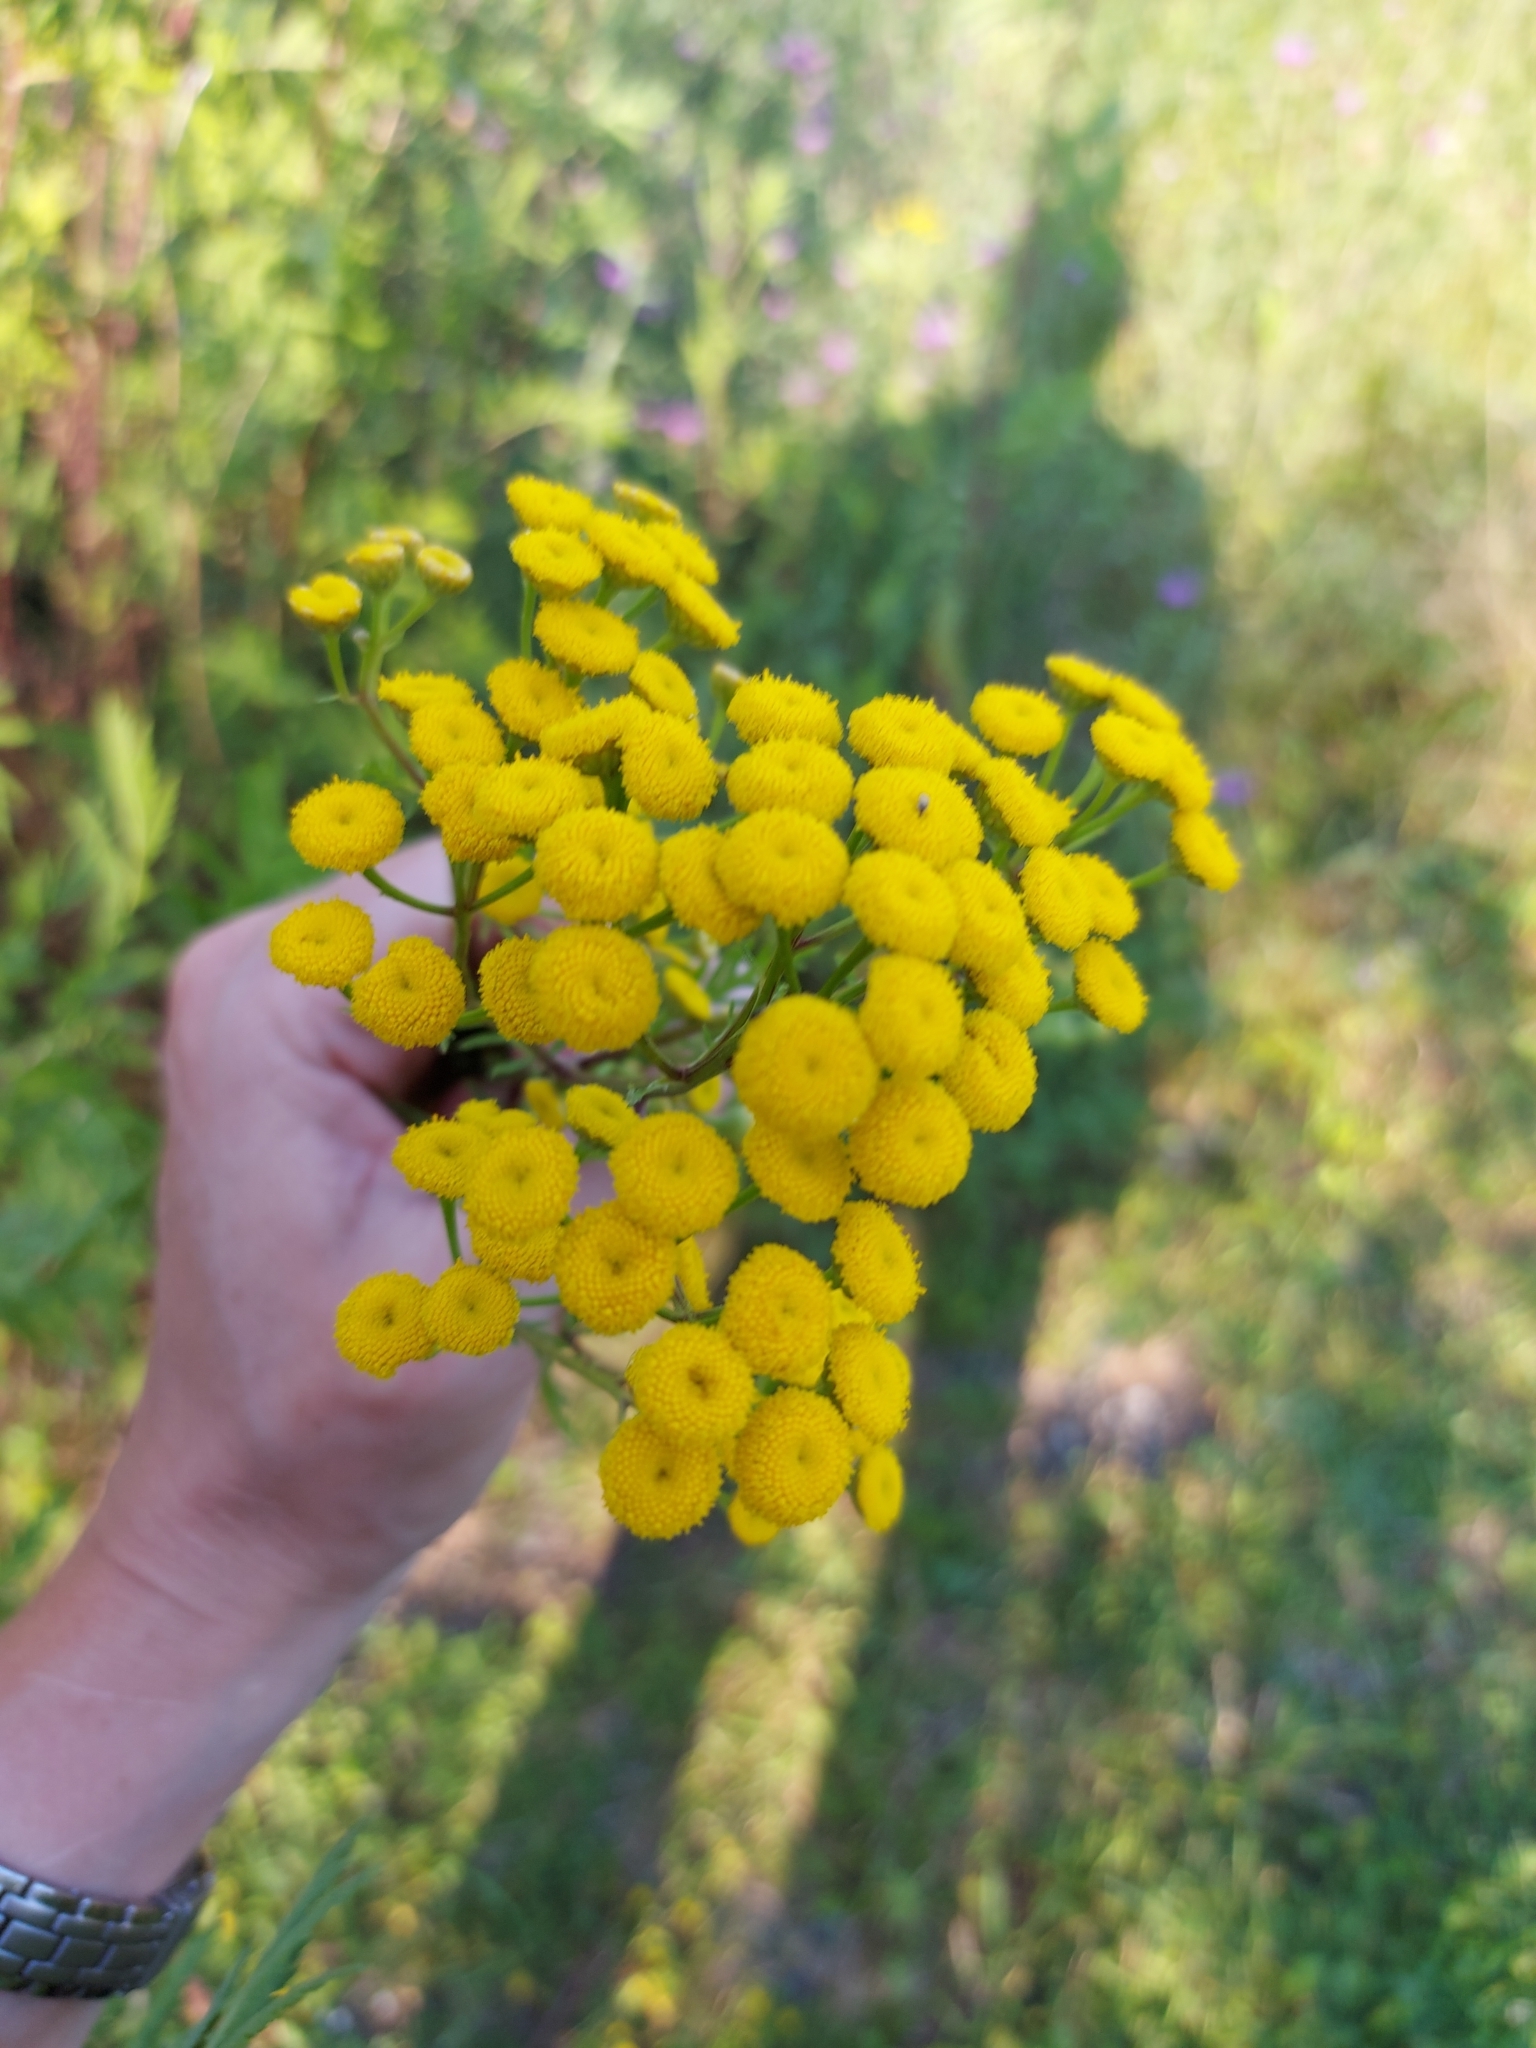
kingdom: Plantae
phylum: Tracheophyta
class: Magnoliopsida
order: Asterales
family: Asteraceae
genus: Tanacetum
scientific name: Tanacetum vulgare
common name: Common tansy
